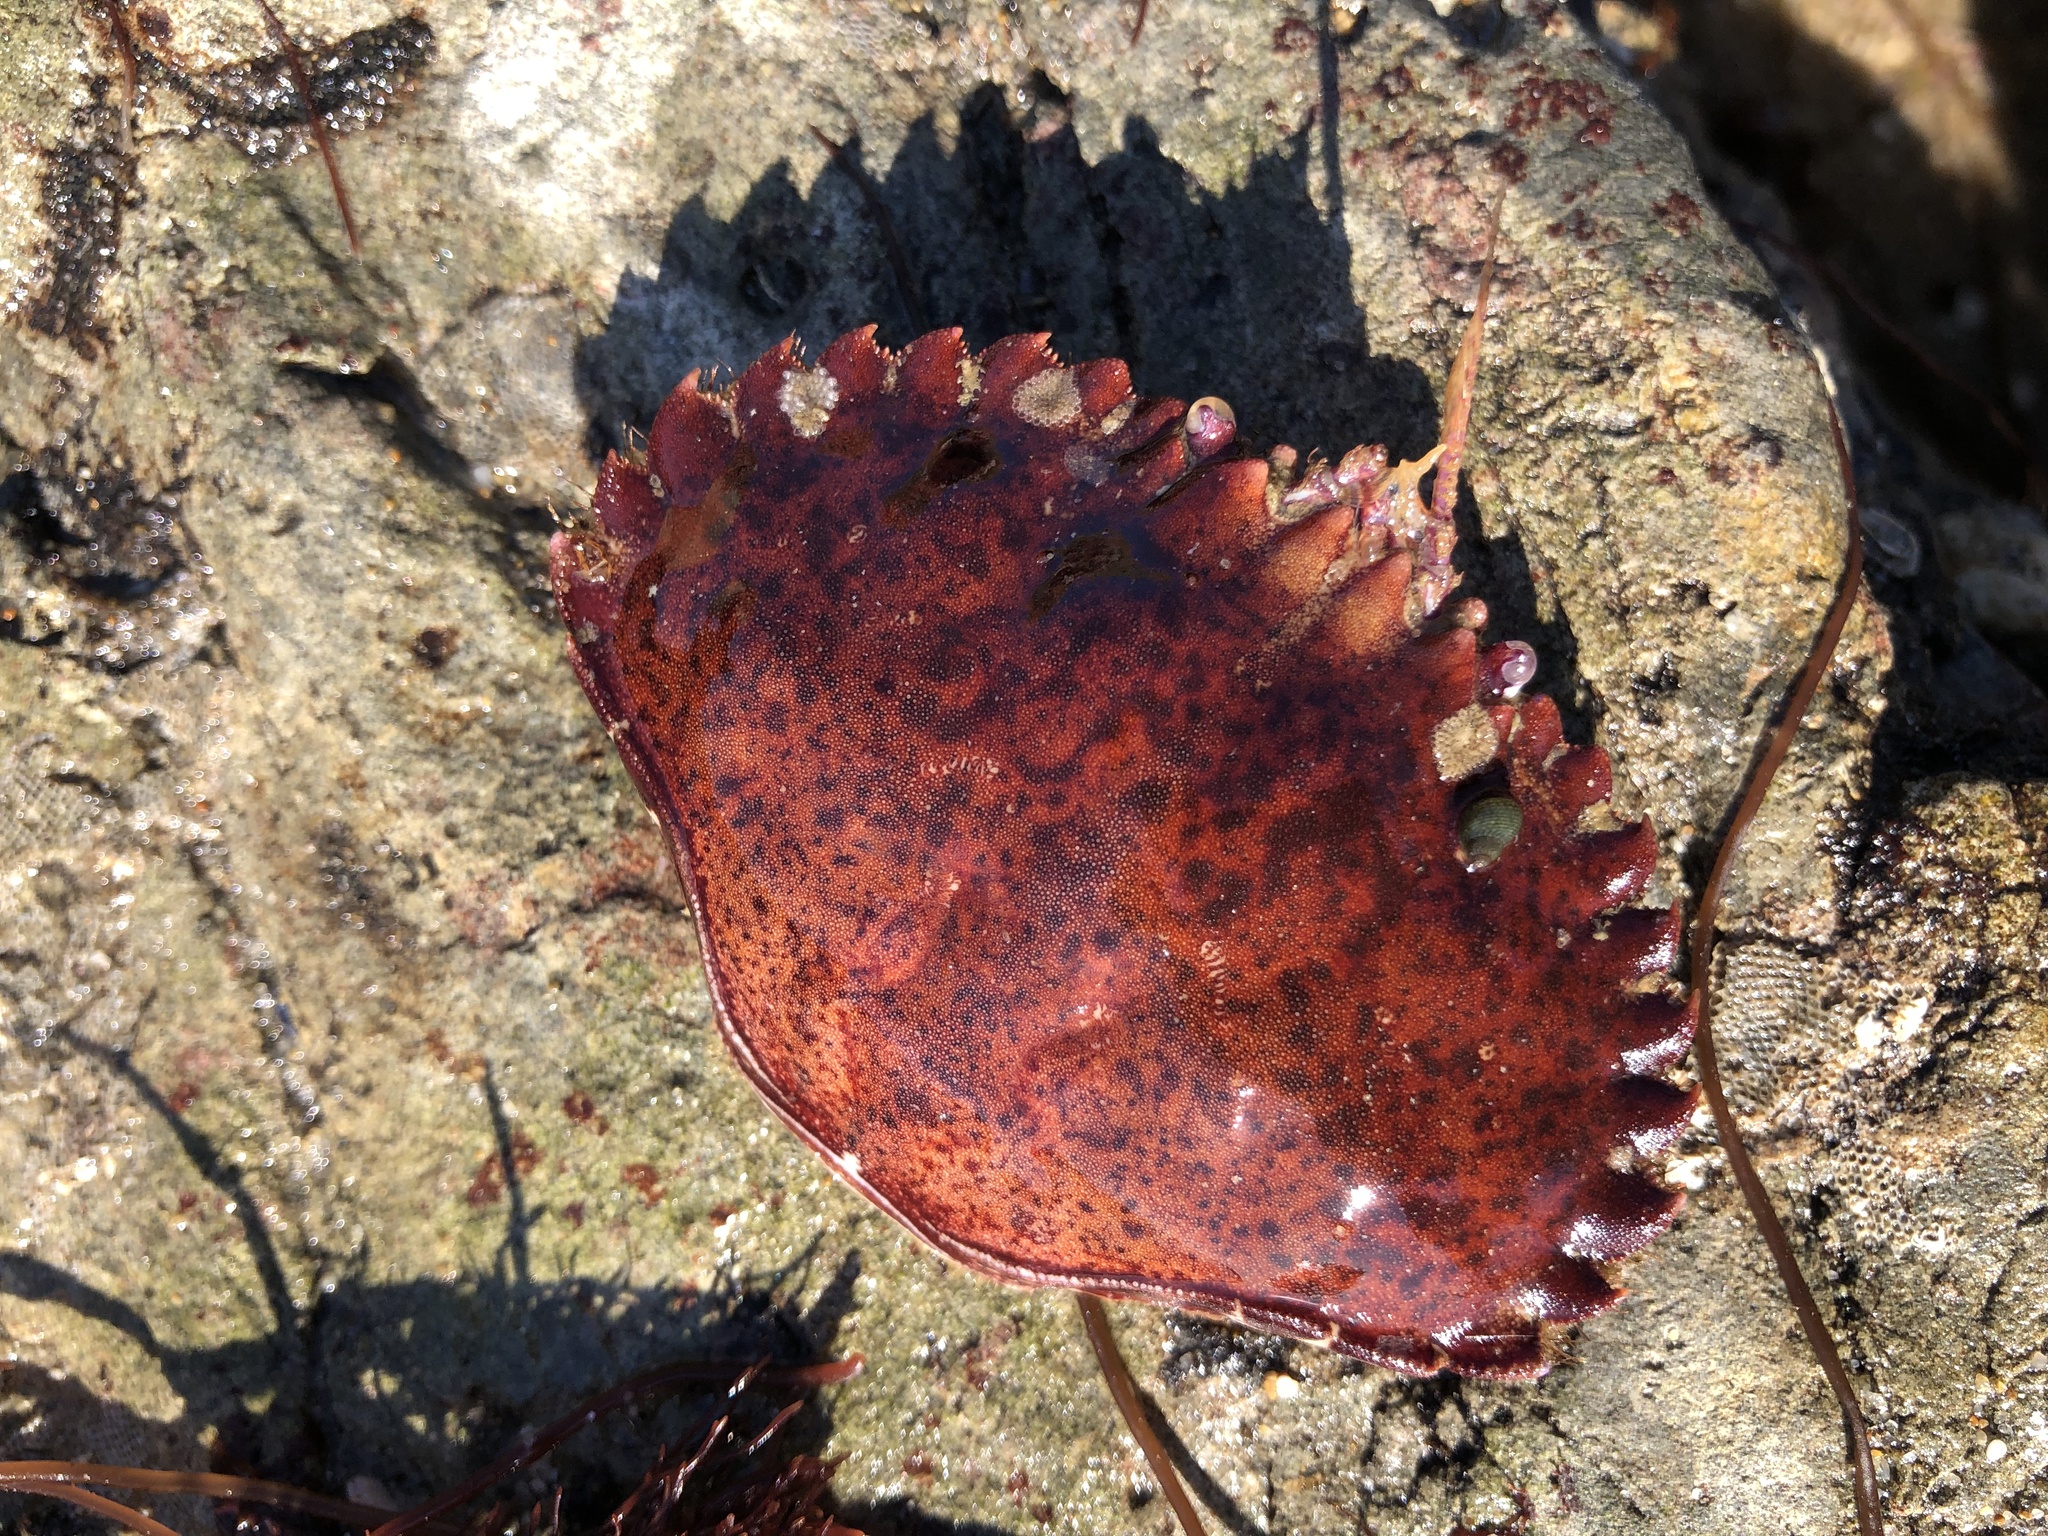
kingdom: Animalia
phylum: Arthropoda
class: Malacostraca
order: Decapoda
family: Cancridae
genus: Romaleon
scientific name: Romaleon antennarium
